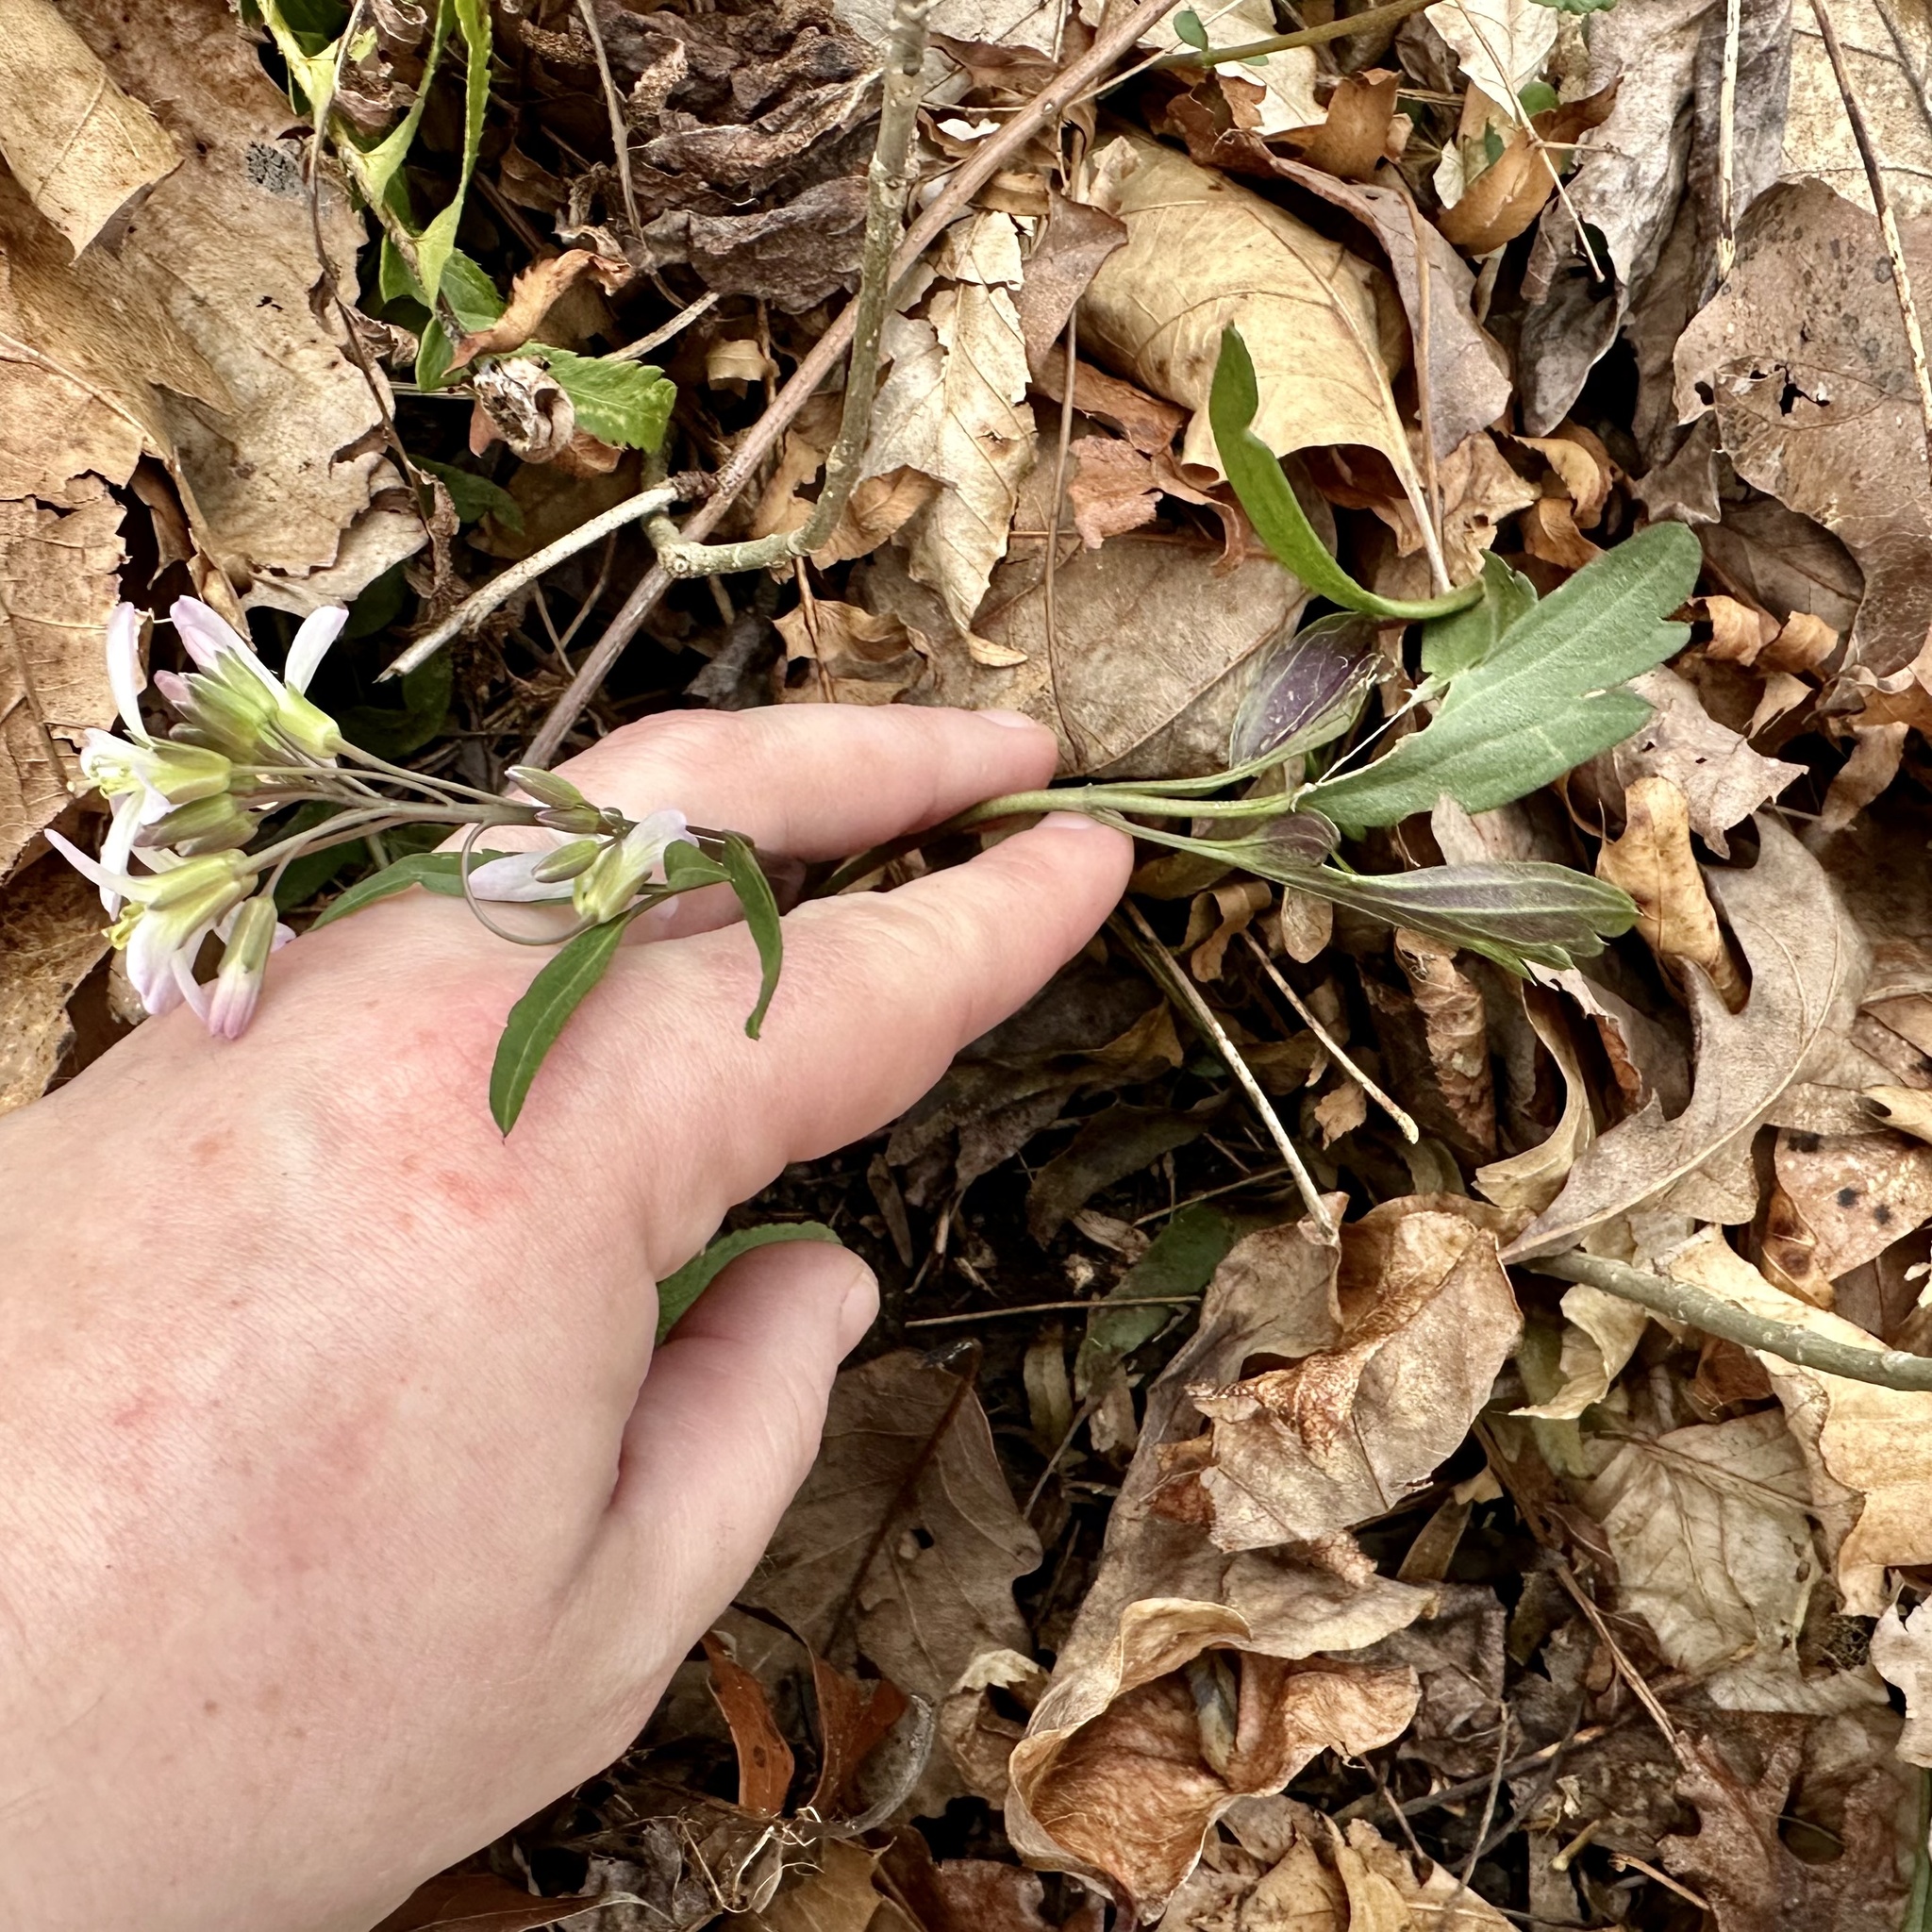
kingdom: Plantae
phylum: Tracheophyta
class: Magnoliopsida
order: Brassicales
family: Brassicaceae
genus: Cardamine
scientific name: Cardamine angustata
